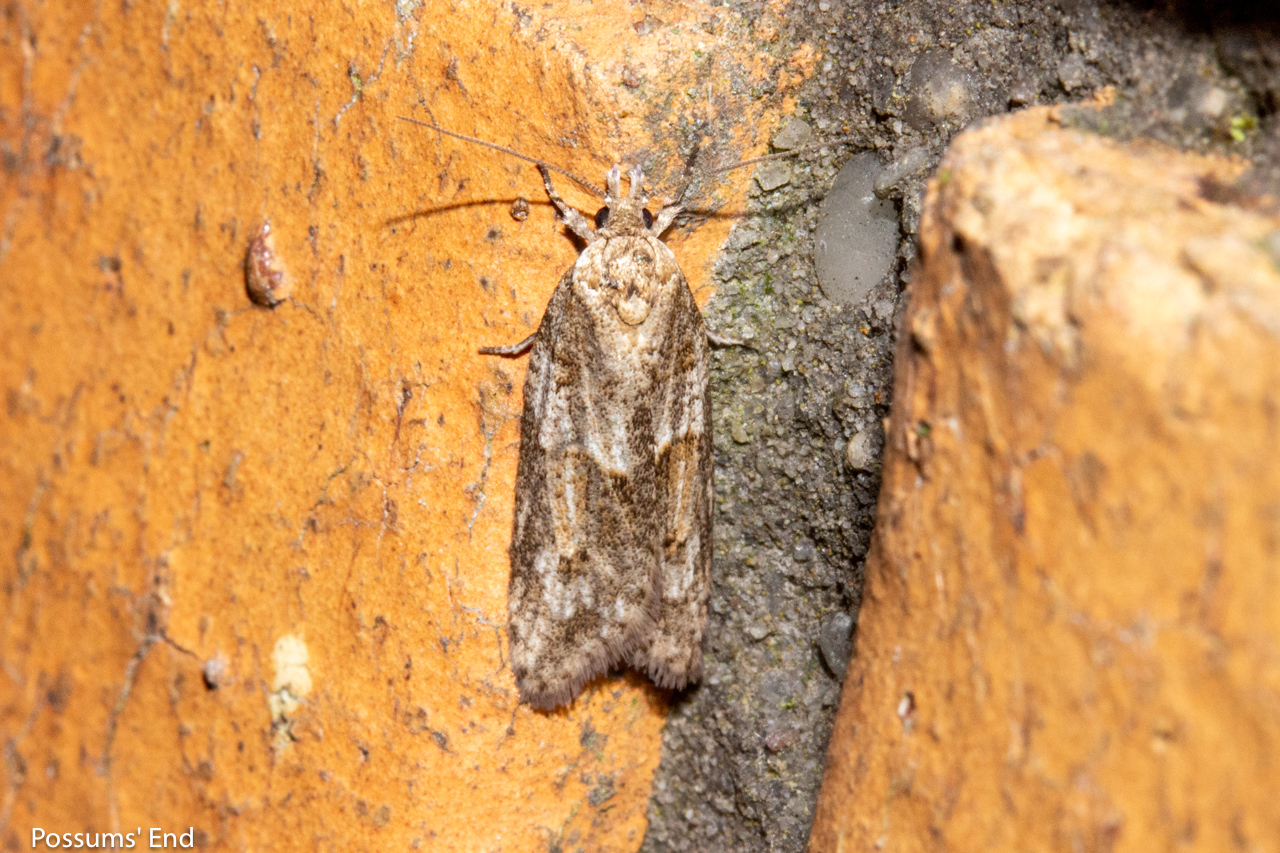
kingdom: Animalia
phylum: Arthropoda
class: Insecta
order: Lepidoptera
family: Tortricidae
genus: Prothelymna
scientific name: Prothelymna antiquana
